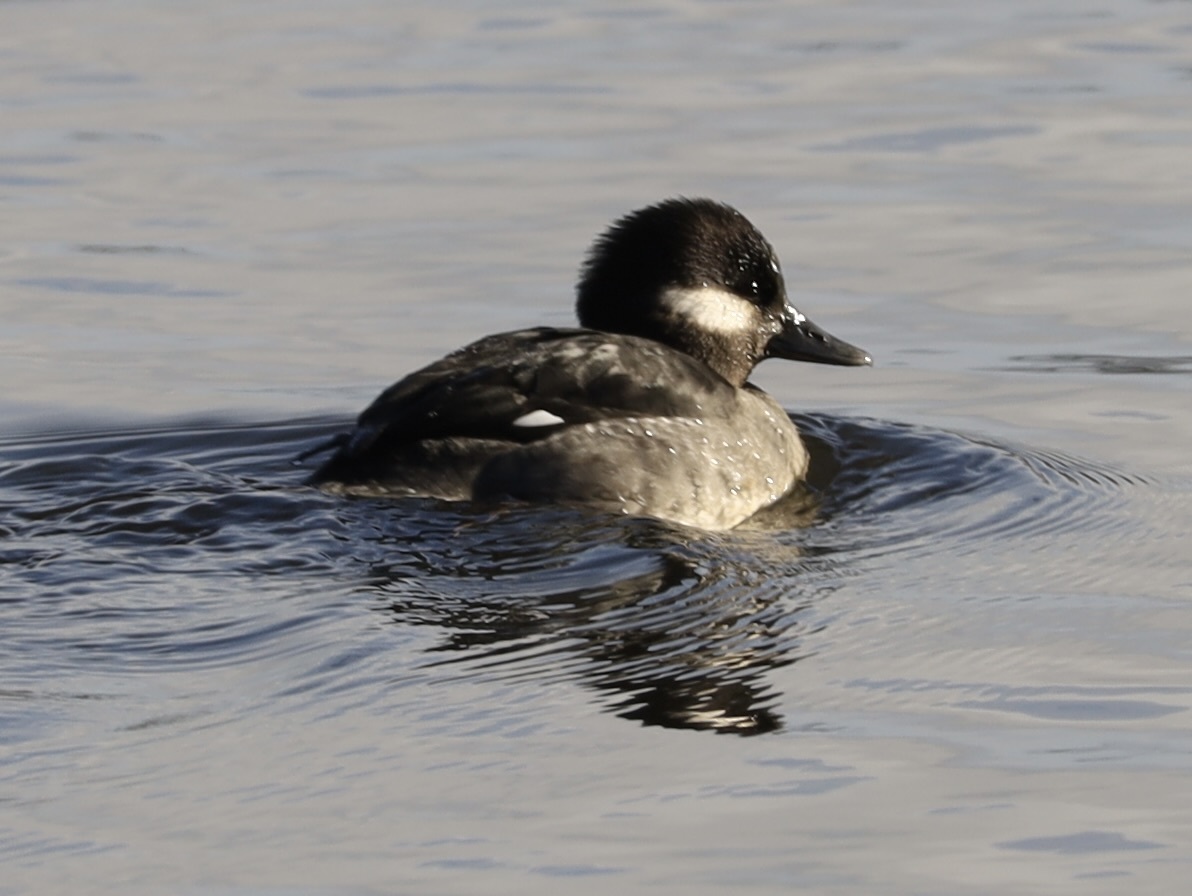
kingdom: Animalia
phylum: Chordata
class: Aves
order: Anseriformes
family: Anatidae
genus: Bucephala
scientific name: Bucephala albeola
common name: Bufflehead
